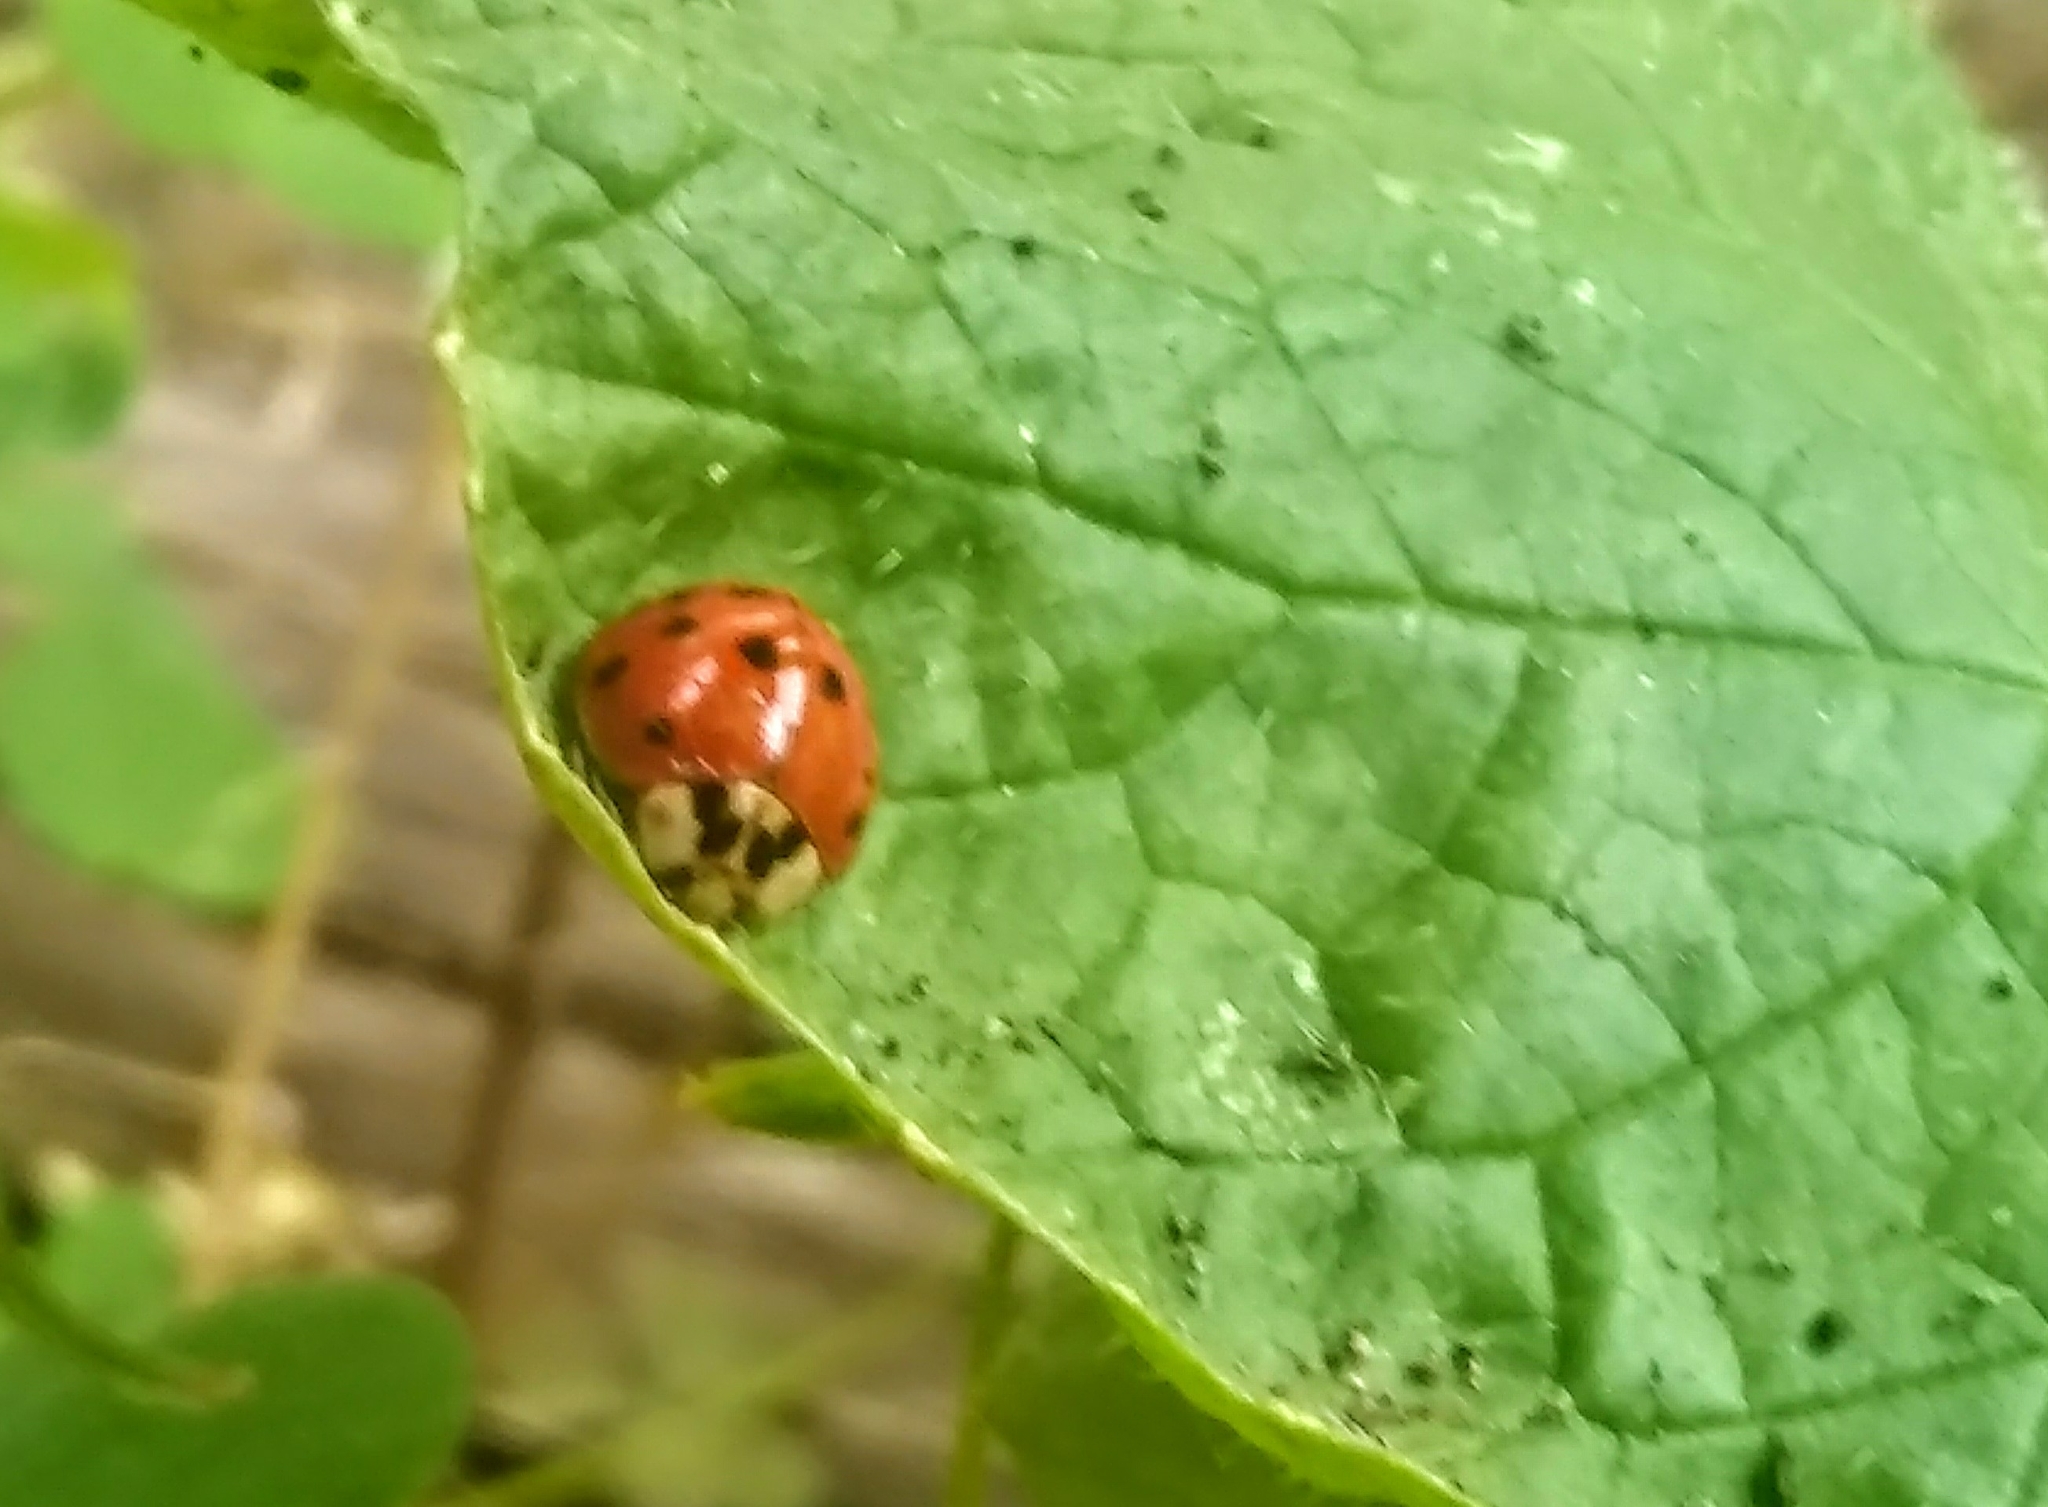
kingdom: Animalia
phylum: Arthropoda
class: Insecta
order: Coleoptera
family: Coccinellidae
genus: Harmonia
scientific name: Harmonia axyridis
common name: Harlequin ladybird
